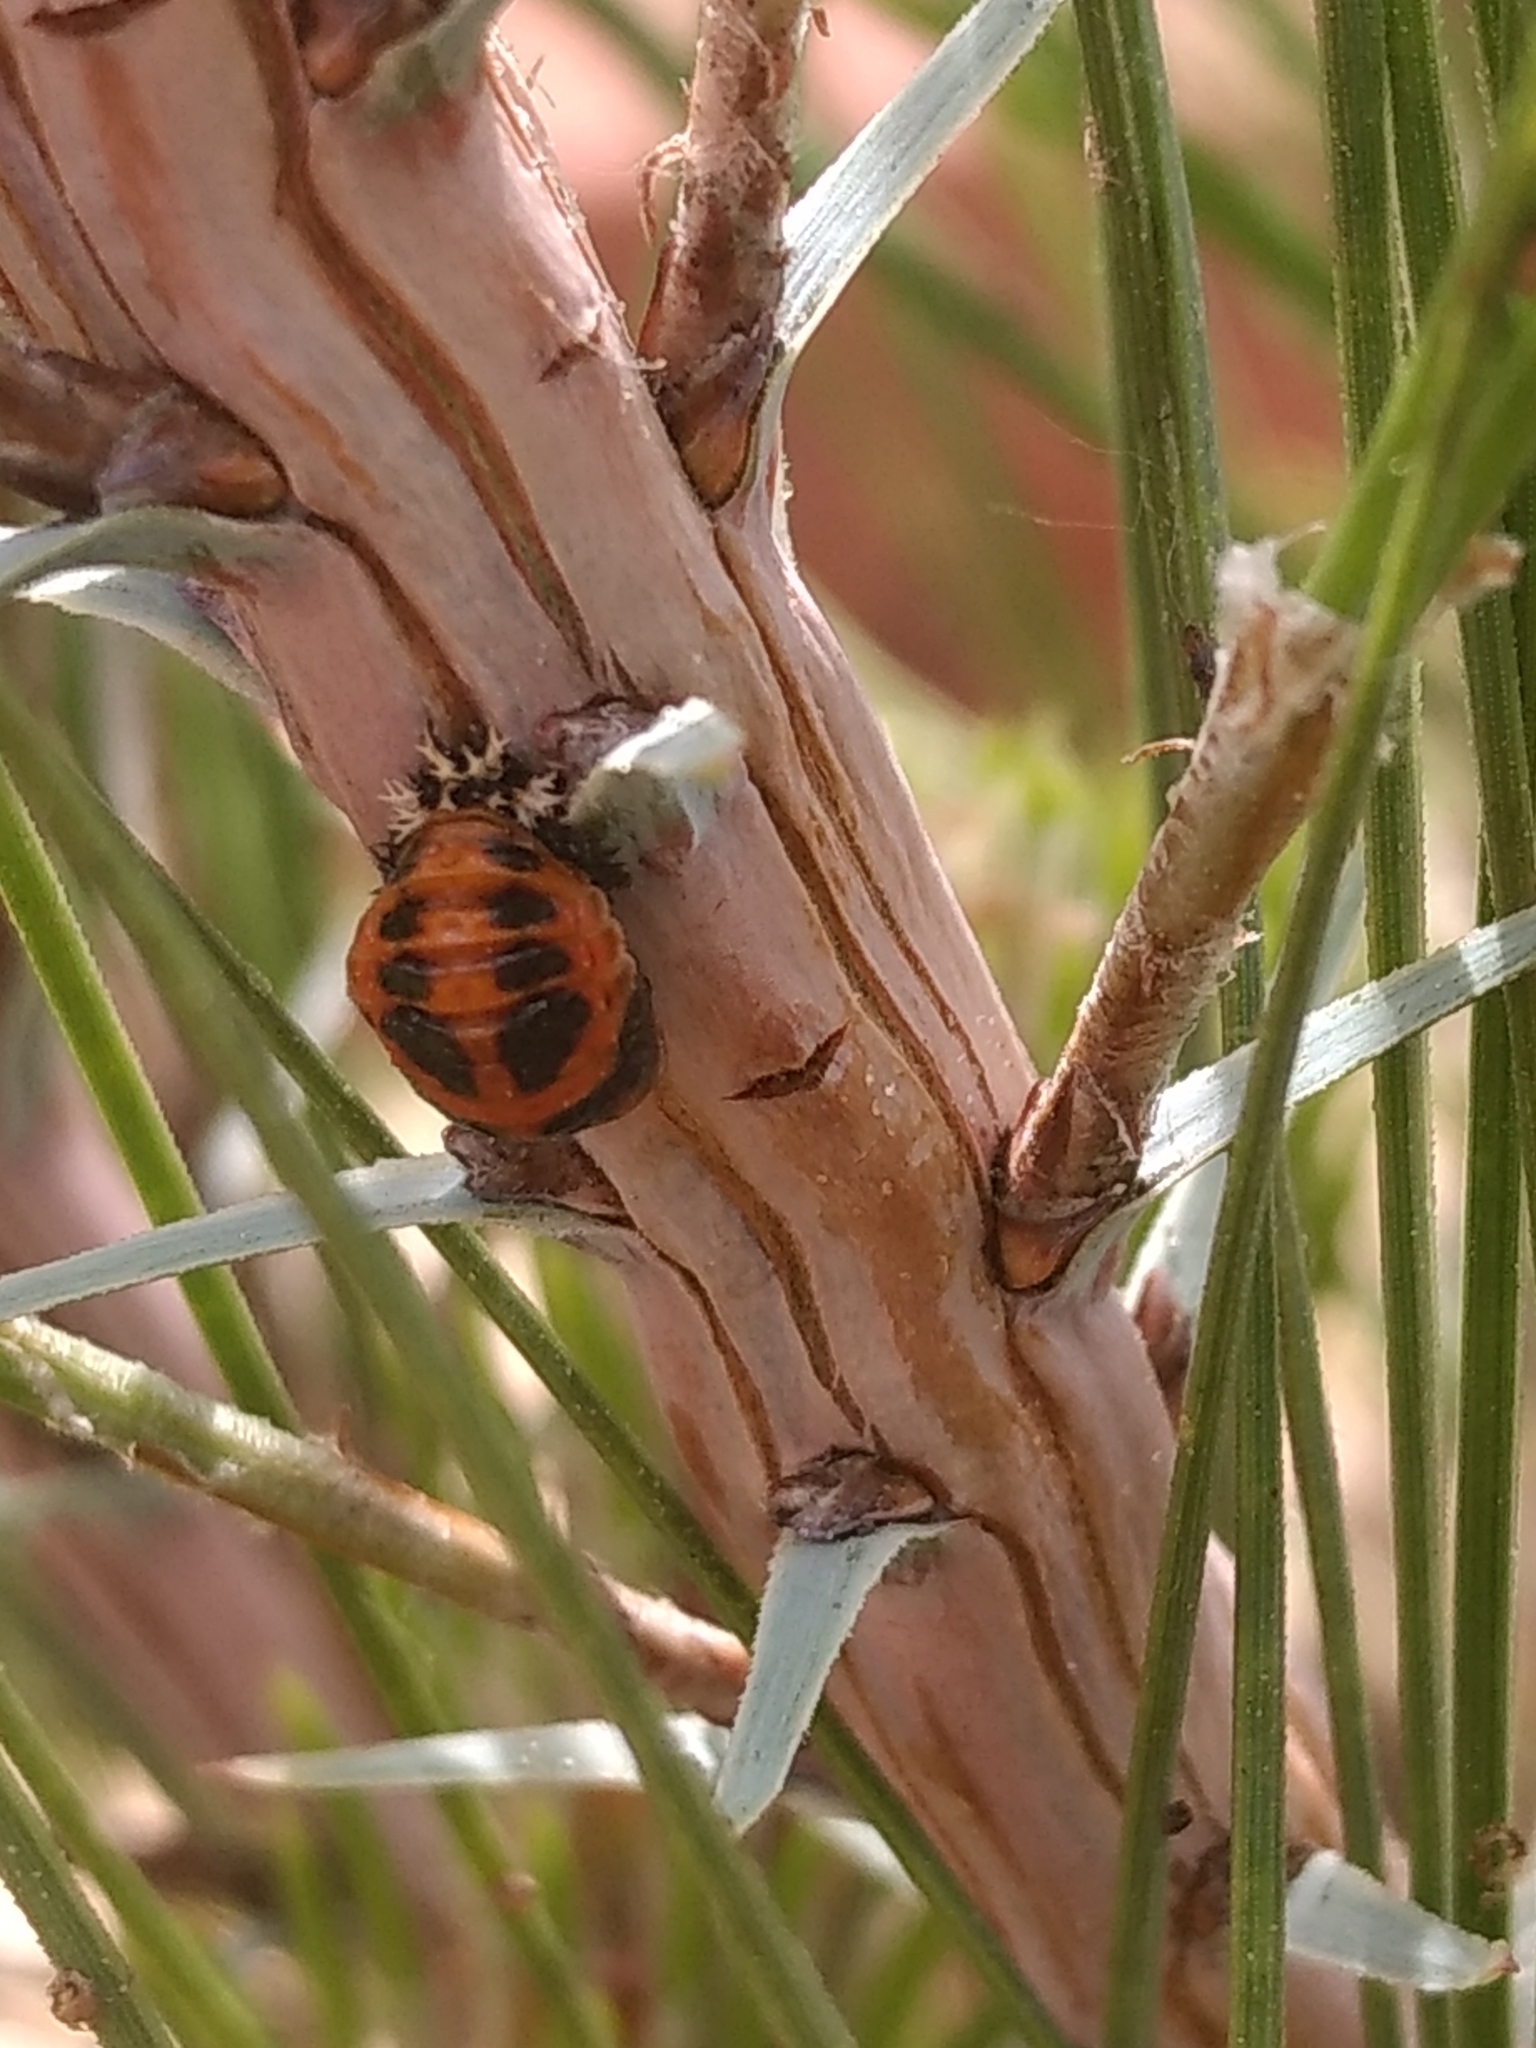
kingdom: Animalia
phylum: Arthropoda
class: Insecta
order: Coleoptera
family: Coccinellidae
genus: Harmonia
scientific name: Harmonia axyridis
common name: Harlequin ladybird
